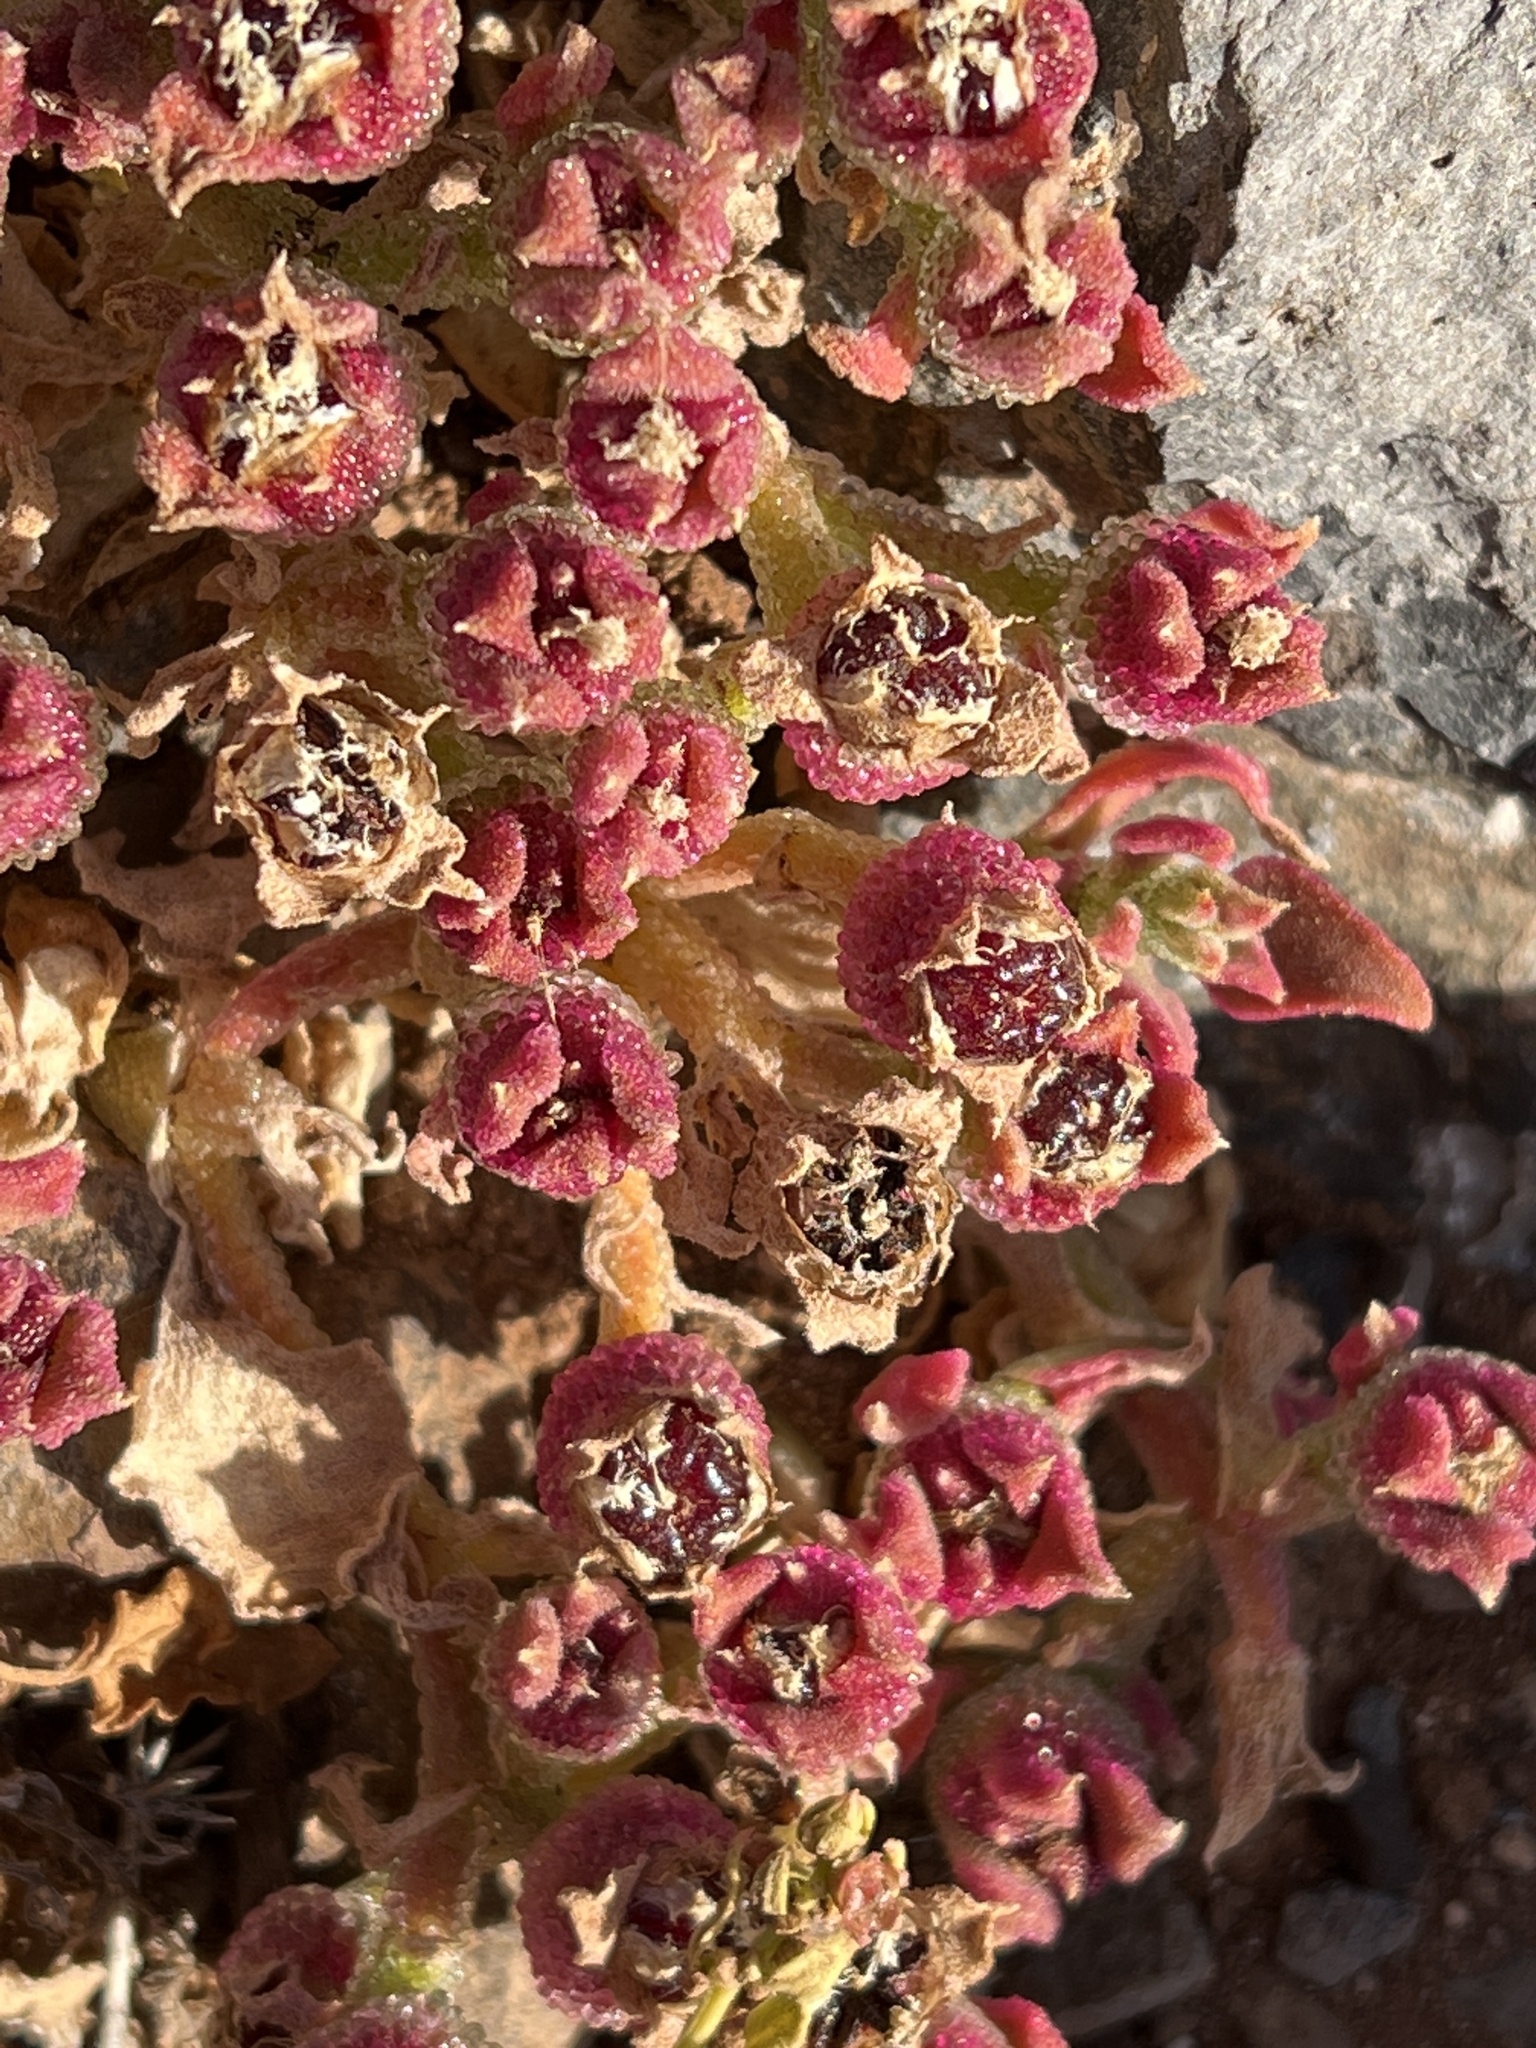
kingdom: Plantae
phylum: Tracheophyta
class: Magnoliopsida
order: Caryophyllales
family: Aizoaceae
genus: Mesembryanthemum
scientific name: Mesembryanthemum crystallinum
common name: Common iceplant
